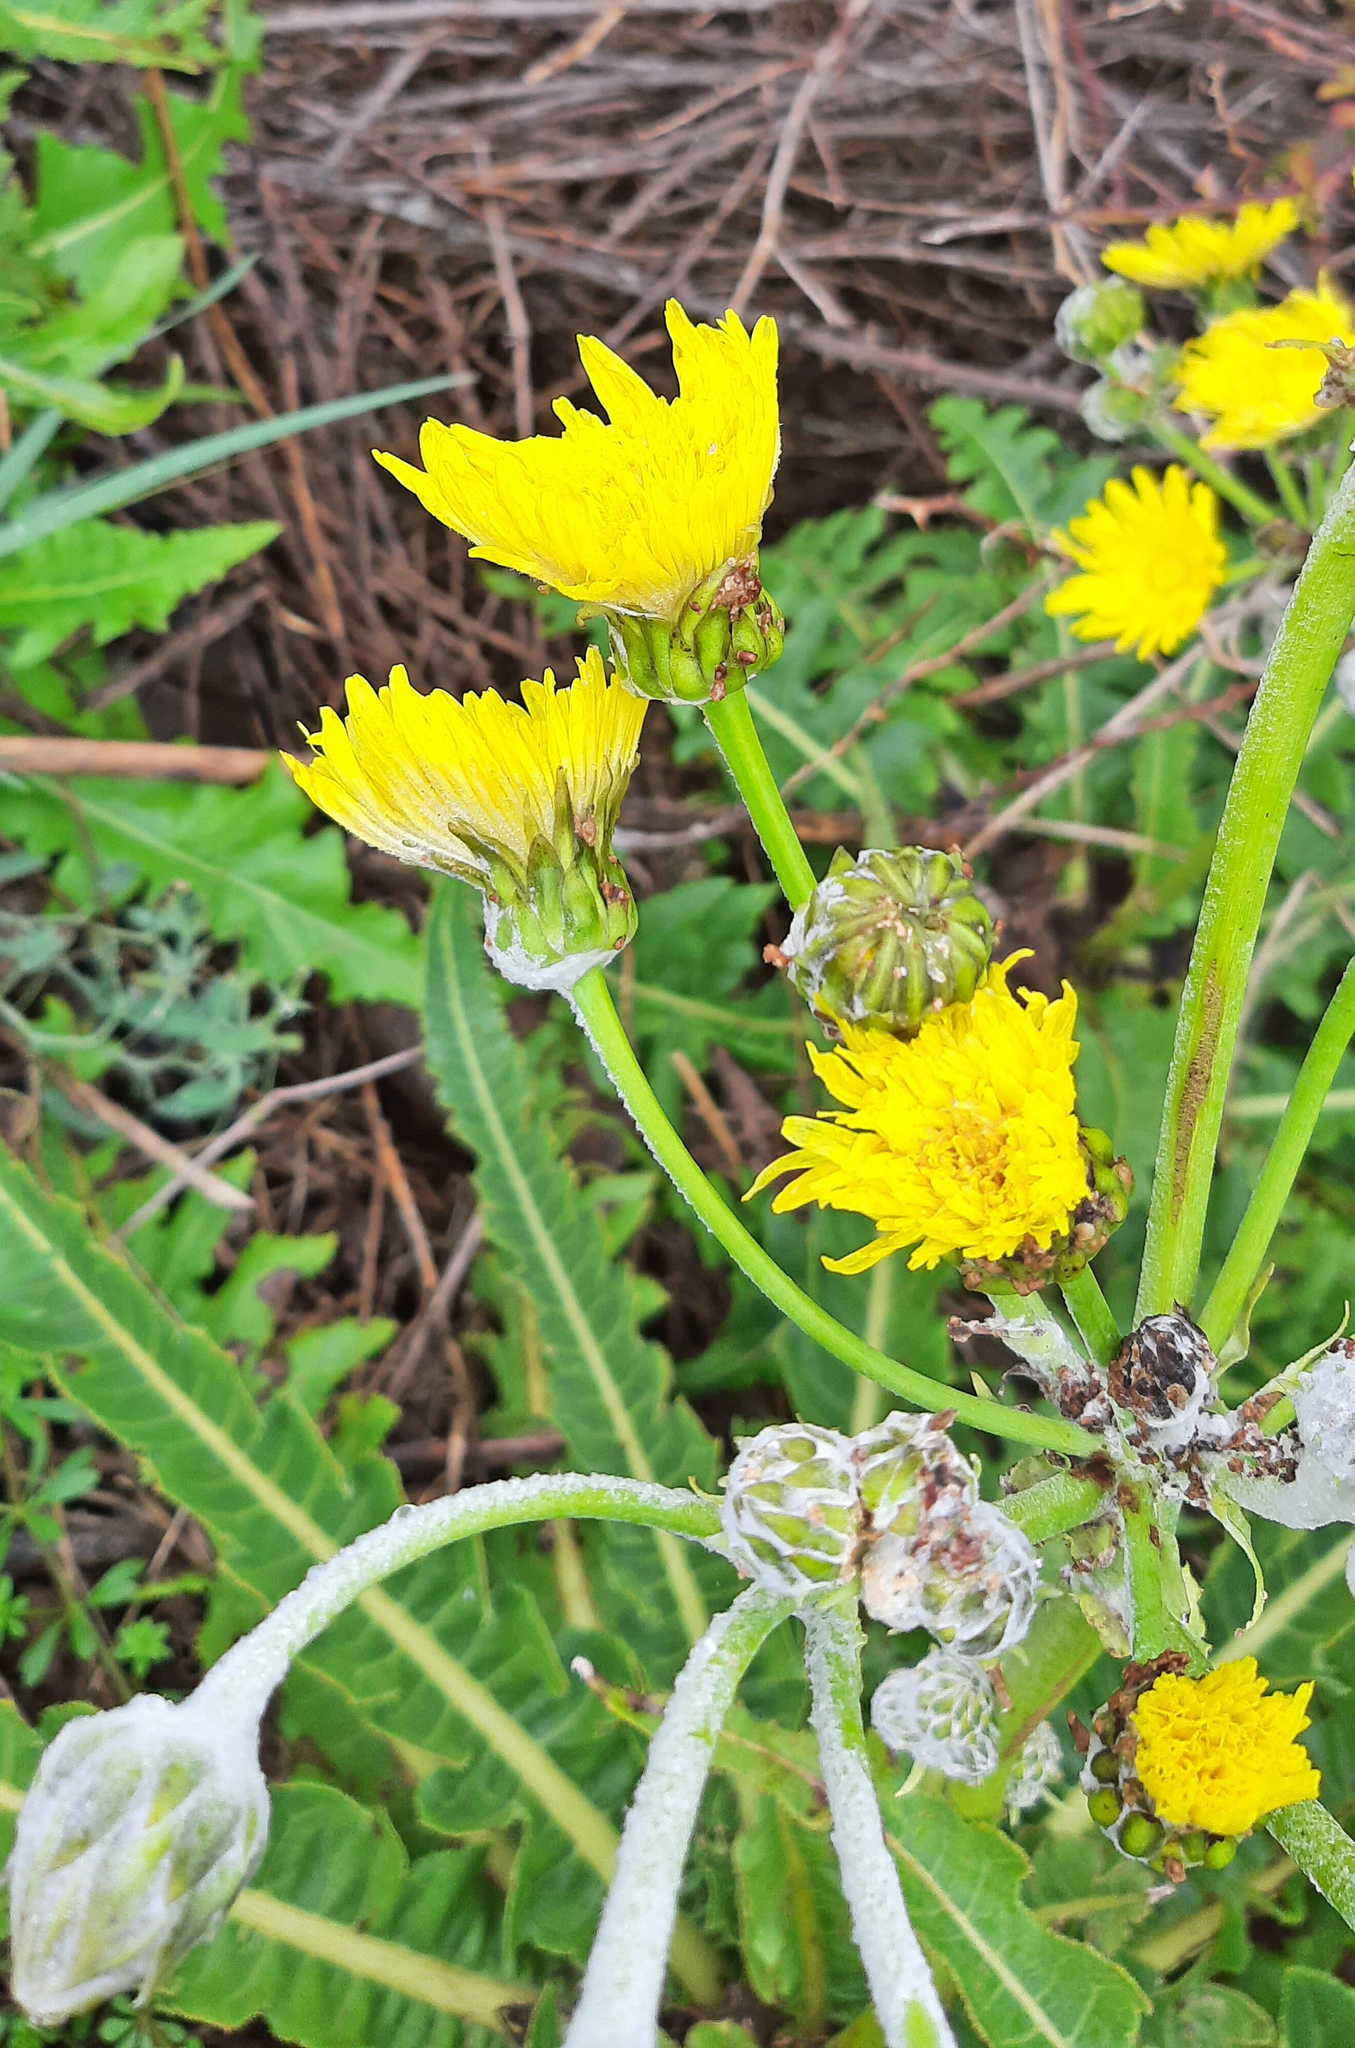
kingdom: Plantae
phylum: Tracheophyta
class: Magnoliopsida
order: Asterales
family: Asteraceae
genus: Sonchus
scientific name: Sonchus acaulis
